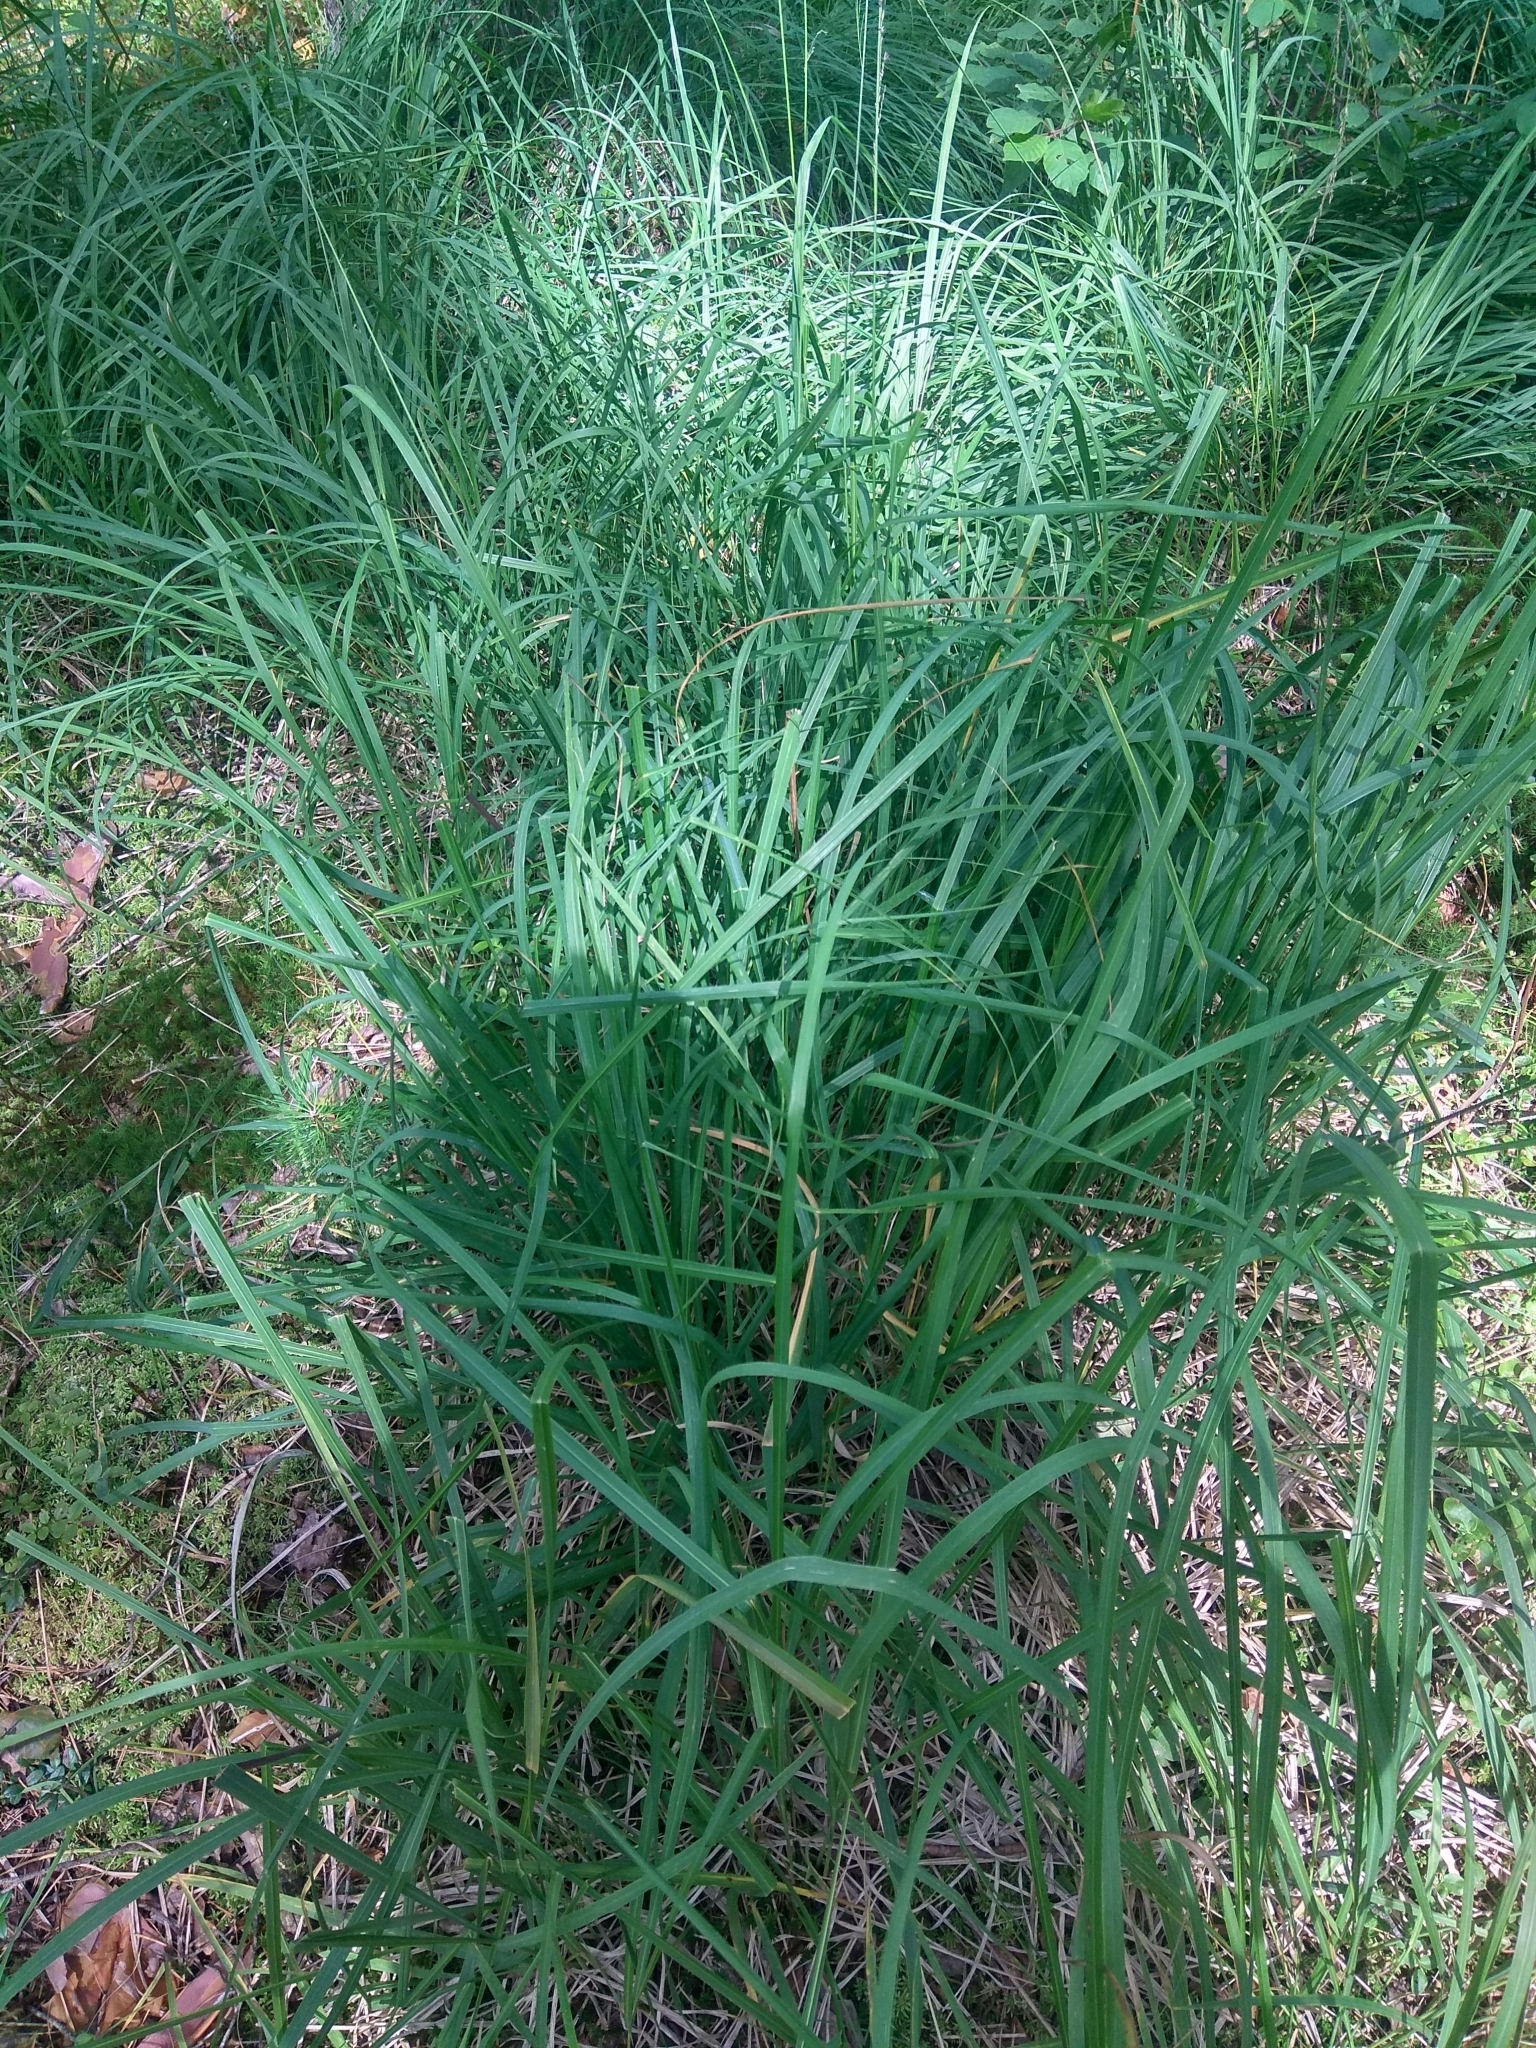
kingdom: Plantae
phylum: Tracheophyta
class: Liliopsida
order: Poales
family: Poaceae
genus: Molinia
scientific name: Molinia caerulea
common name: Purple moor-grass
